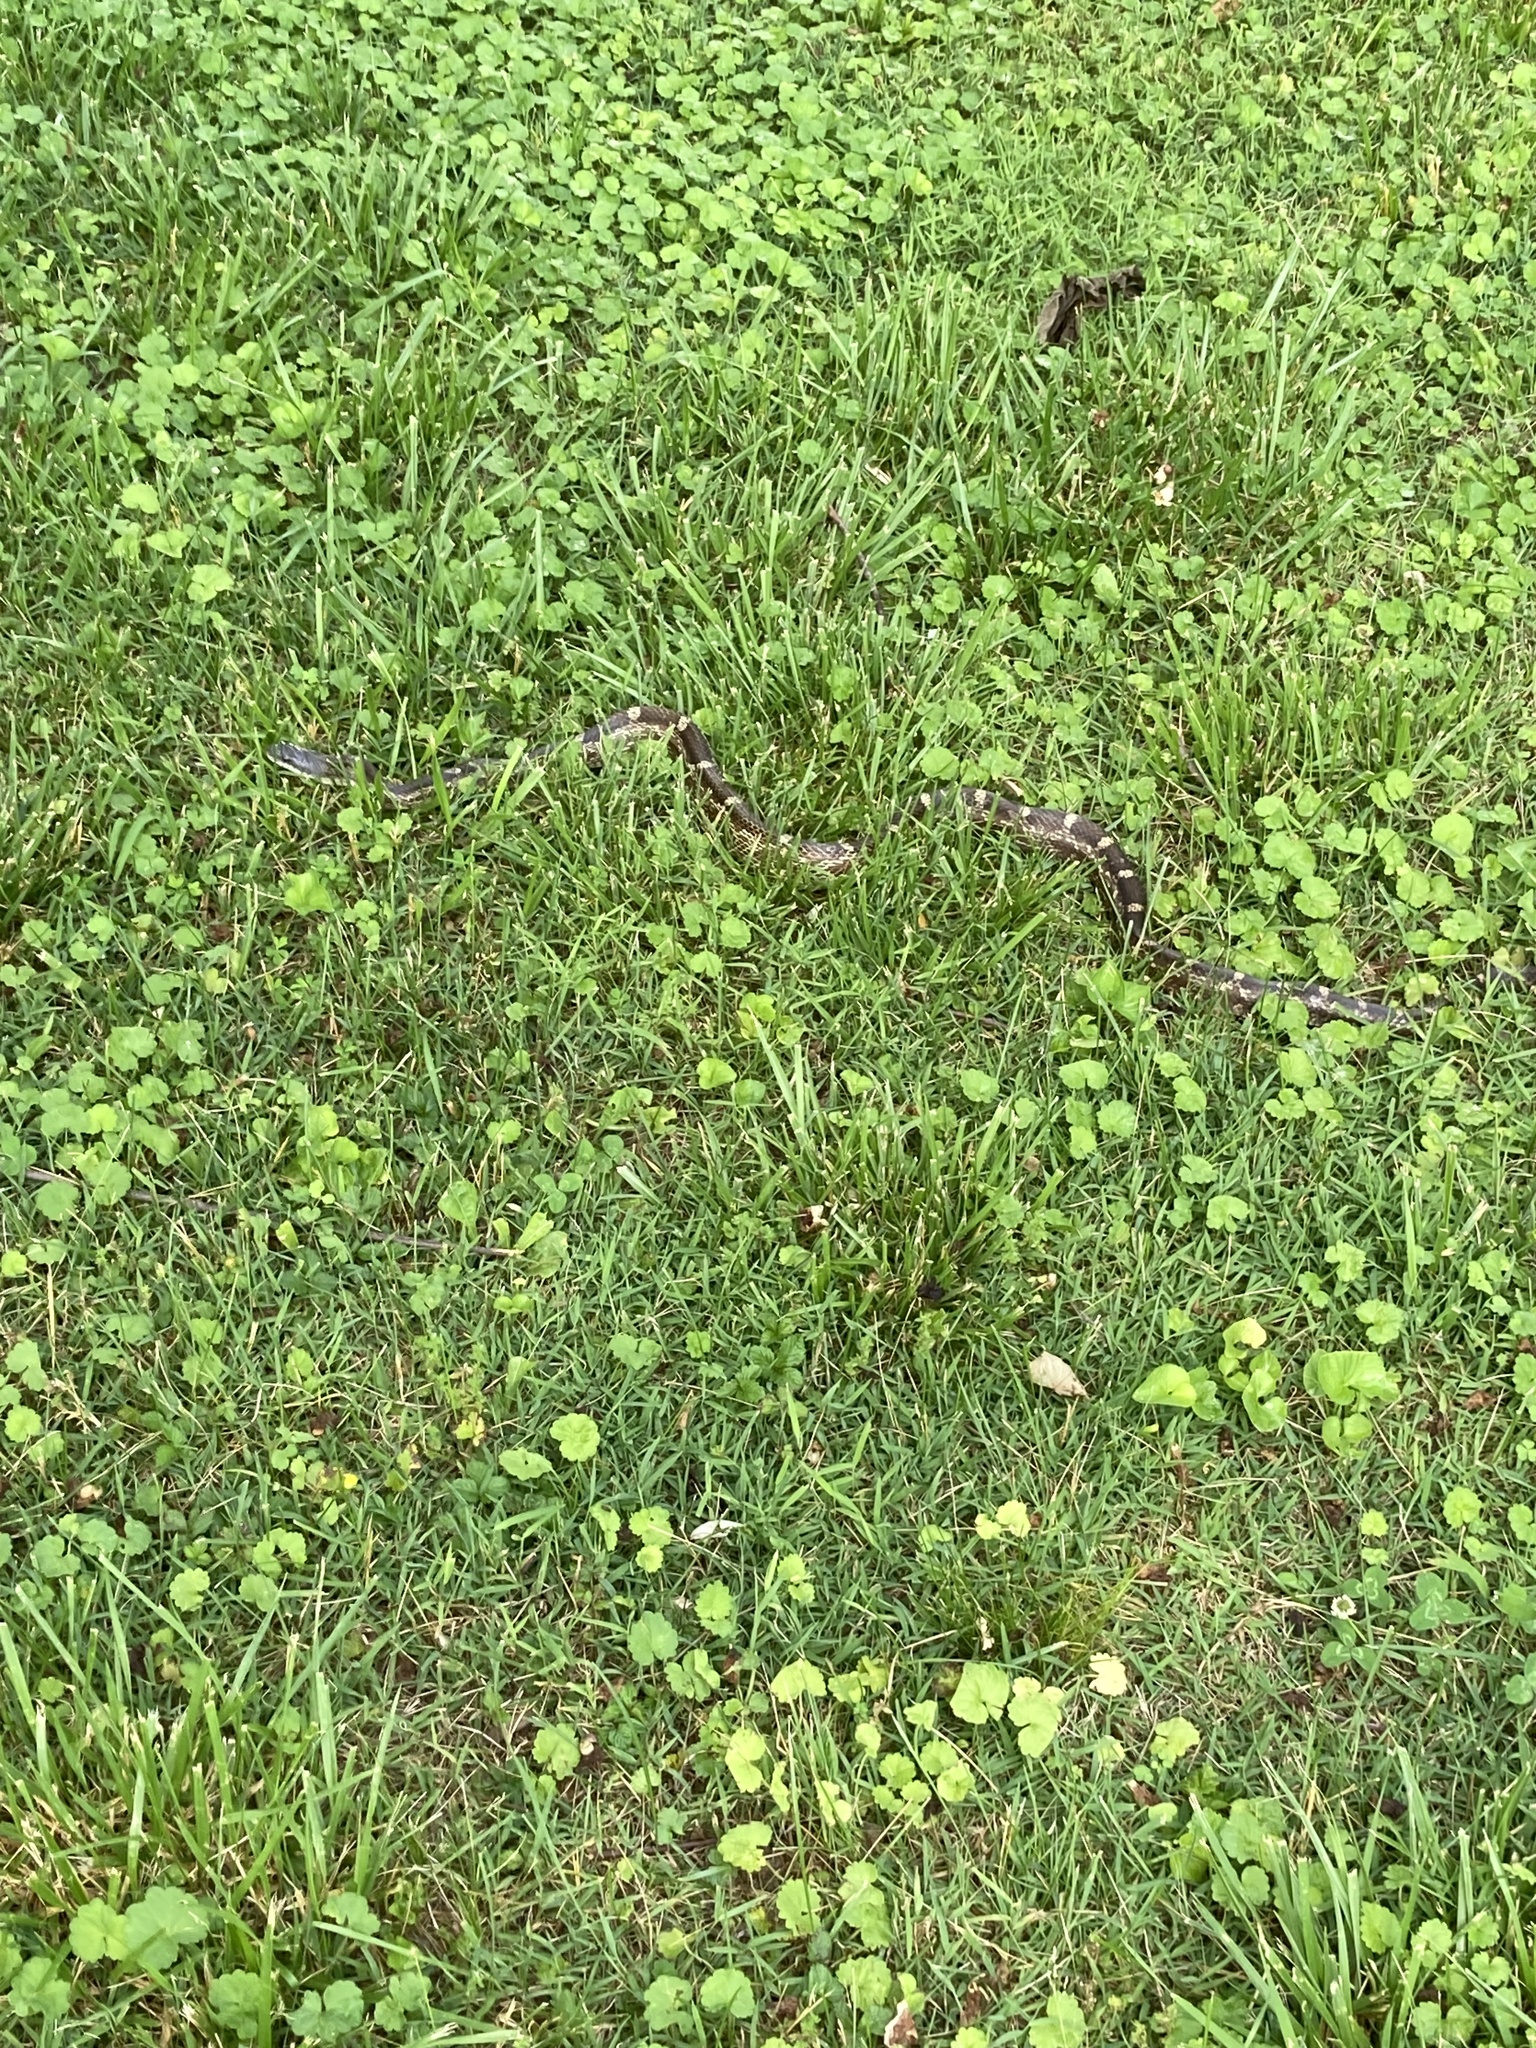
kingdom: Animalia
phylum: Chordata
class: Squamata
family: Colubridae
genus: Pantherophis
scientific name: Pantherophis spiloides
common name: Gray rat snake
